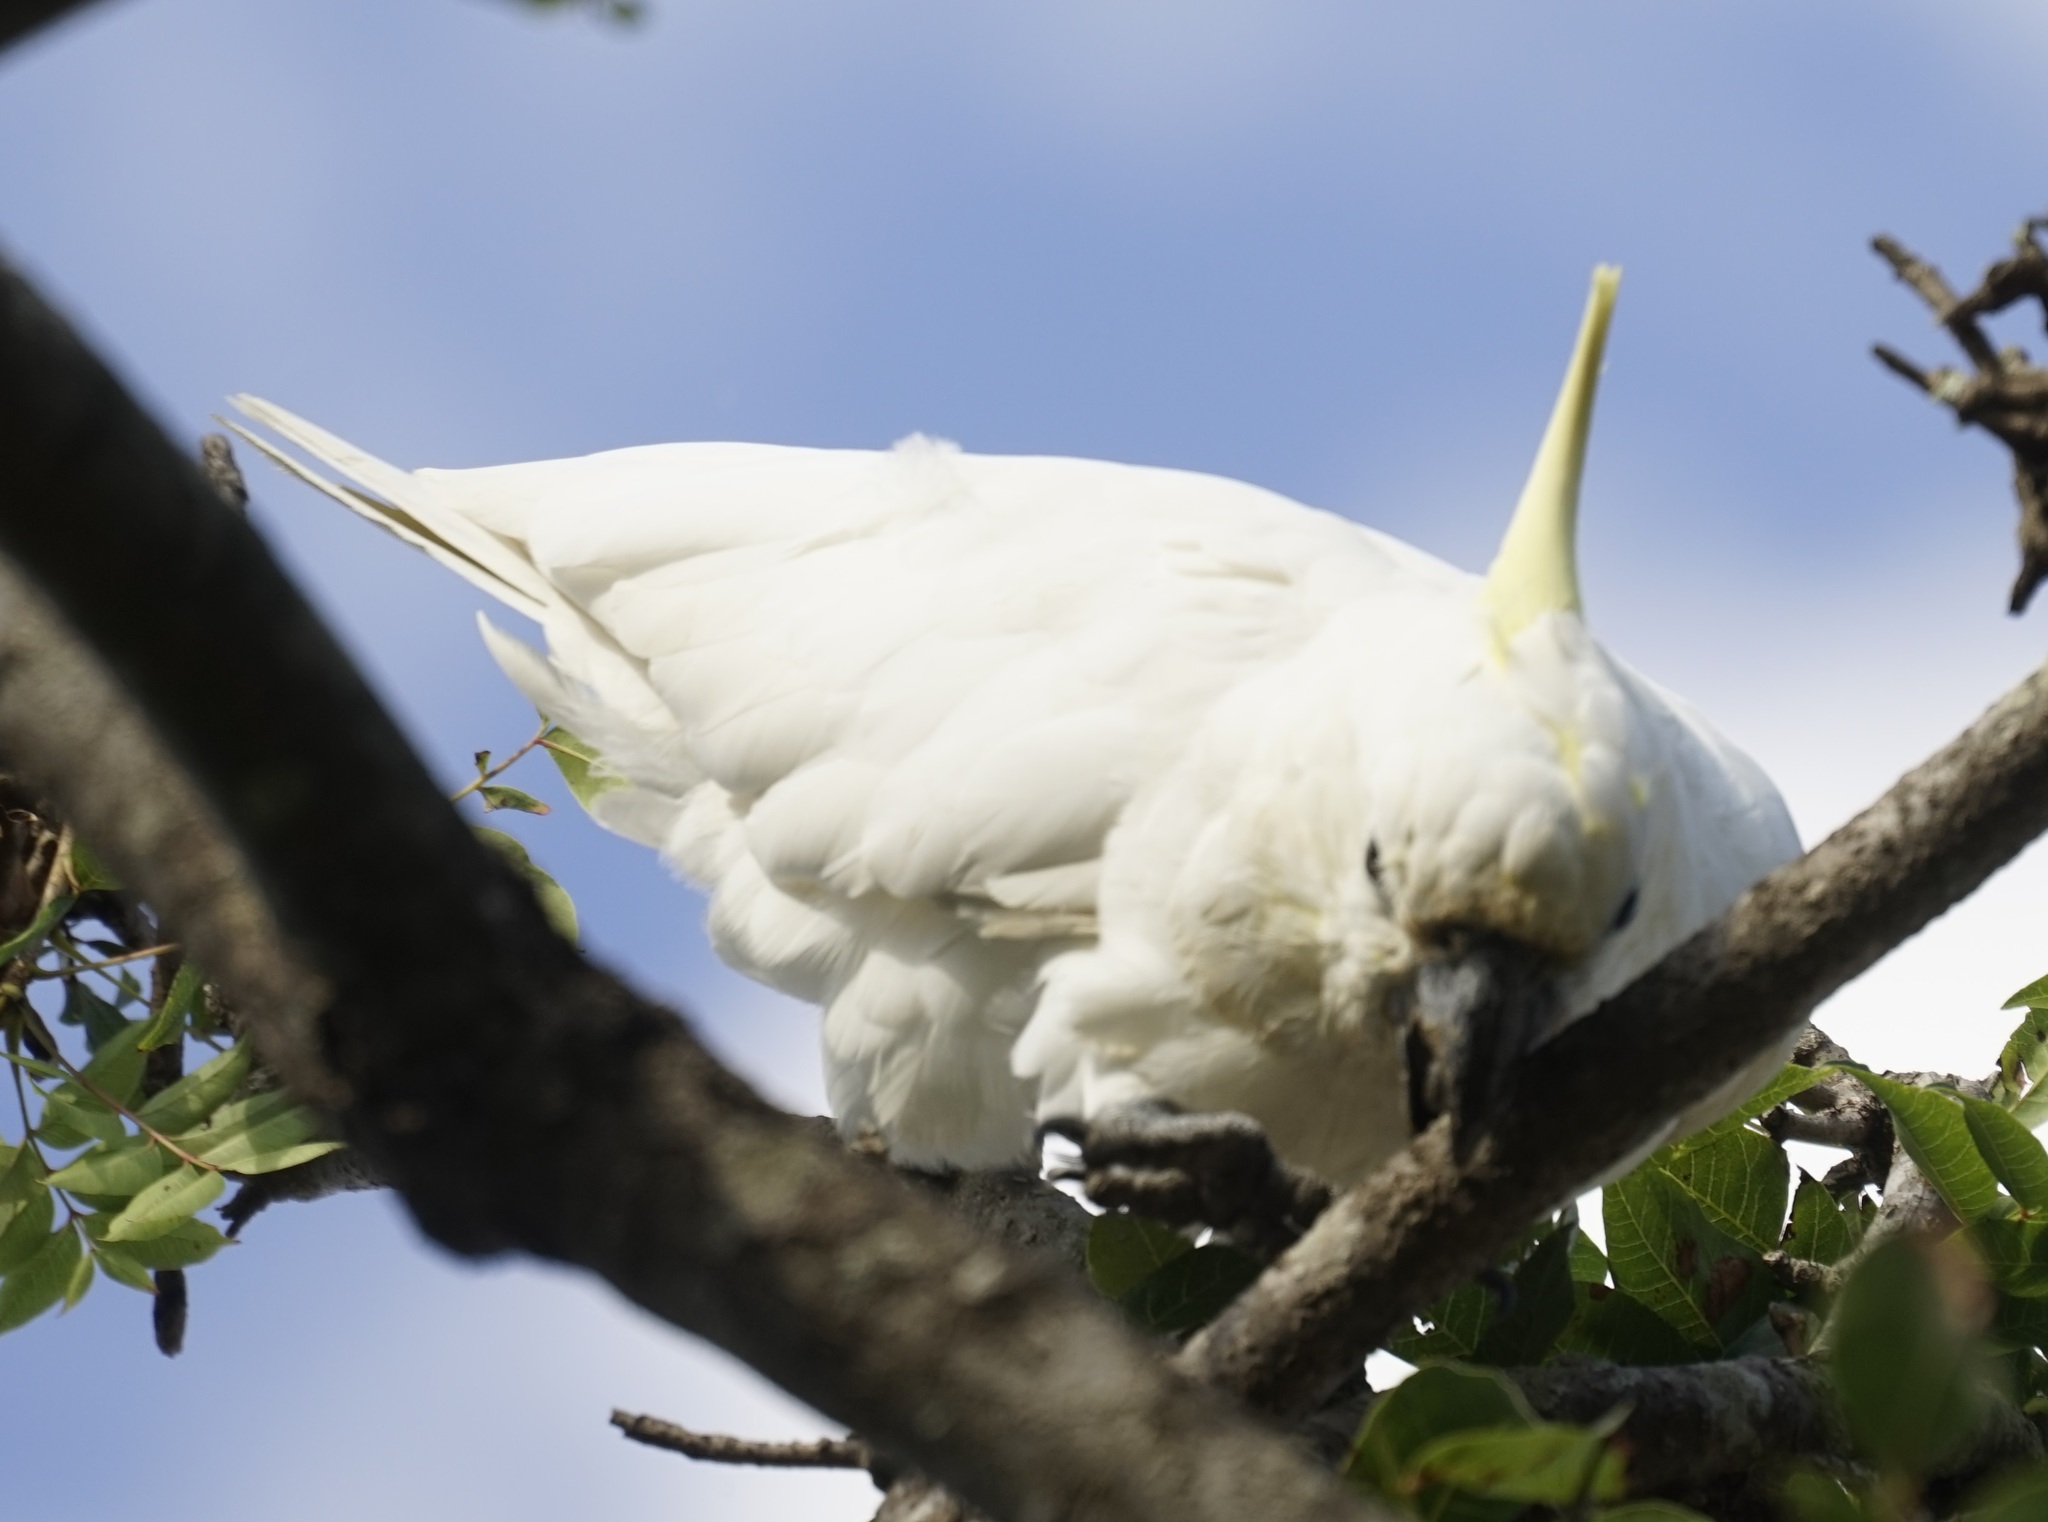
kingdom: Animalia
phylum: Chordata
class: Aves
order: Psittaciformes
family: Psittacidae
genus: Cacatua
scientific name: Cacatua galerita
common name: Sulphur-crested cockatoo
